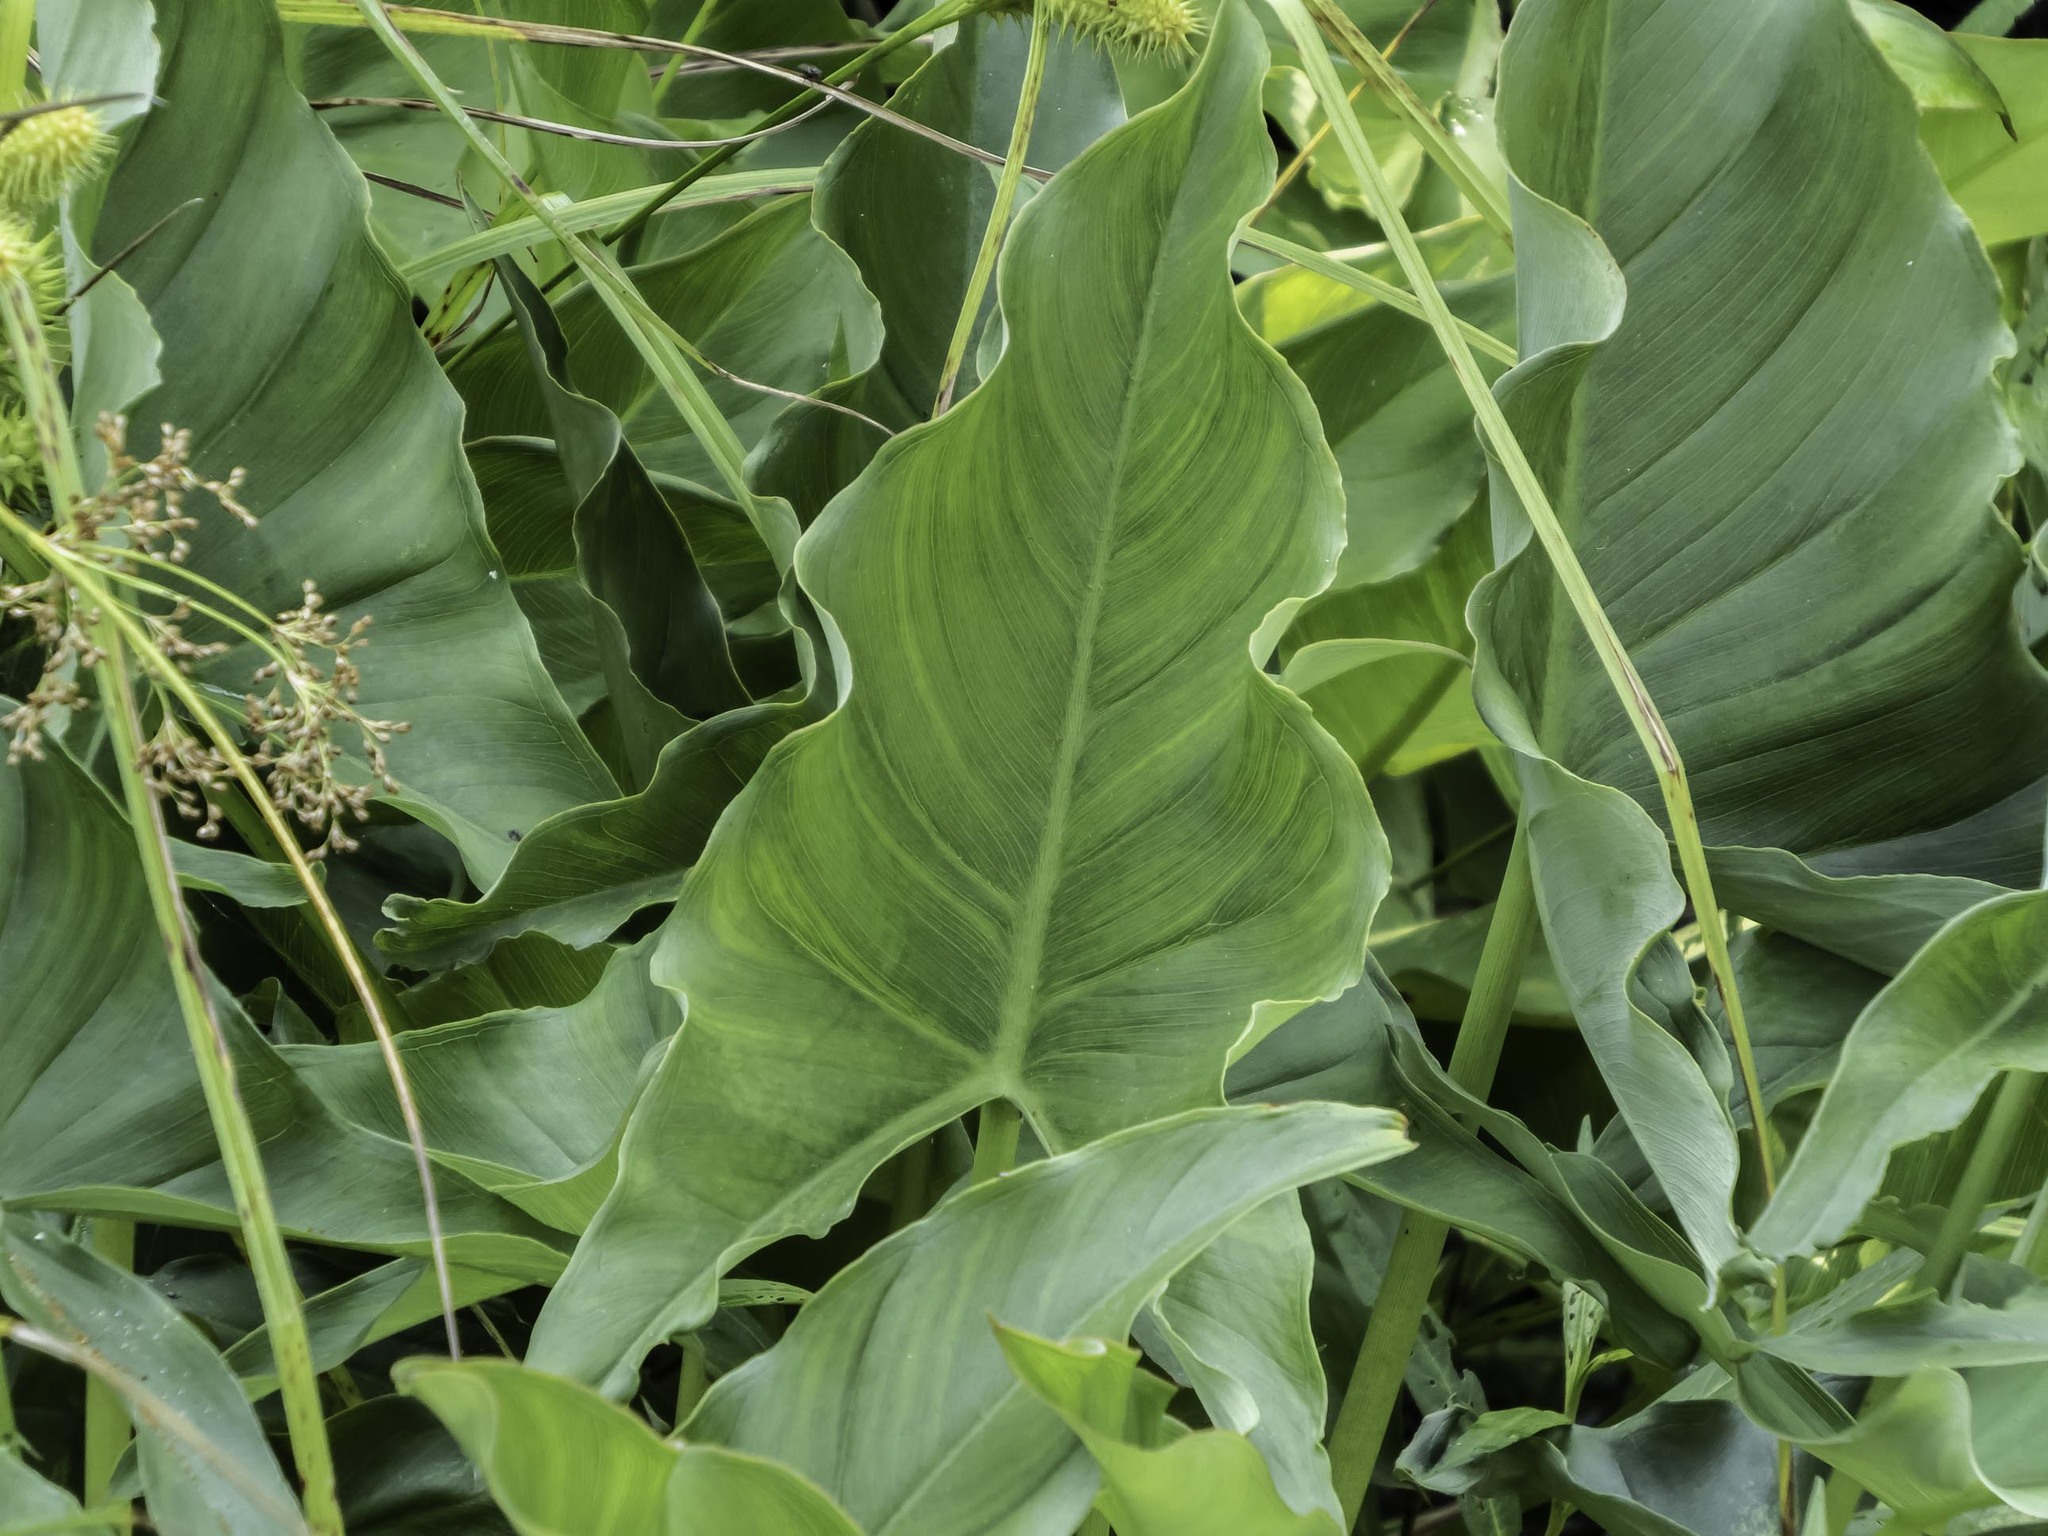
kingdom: Plantae
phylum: Tracheophyta
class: Liliopsida
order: Alismatales
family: Araceae
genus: Peltandra
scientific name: Peltandra virginica
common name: Arrow arum
